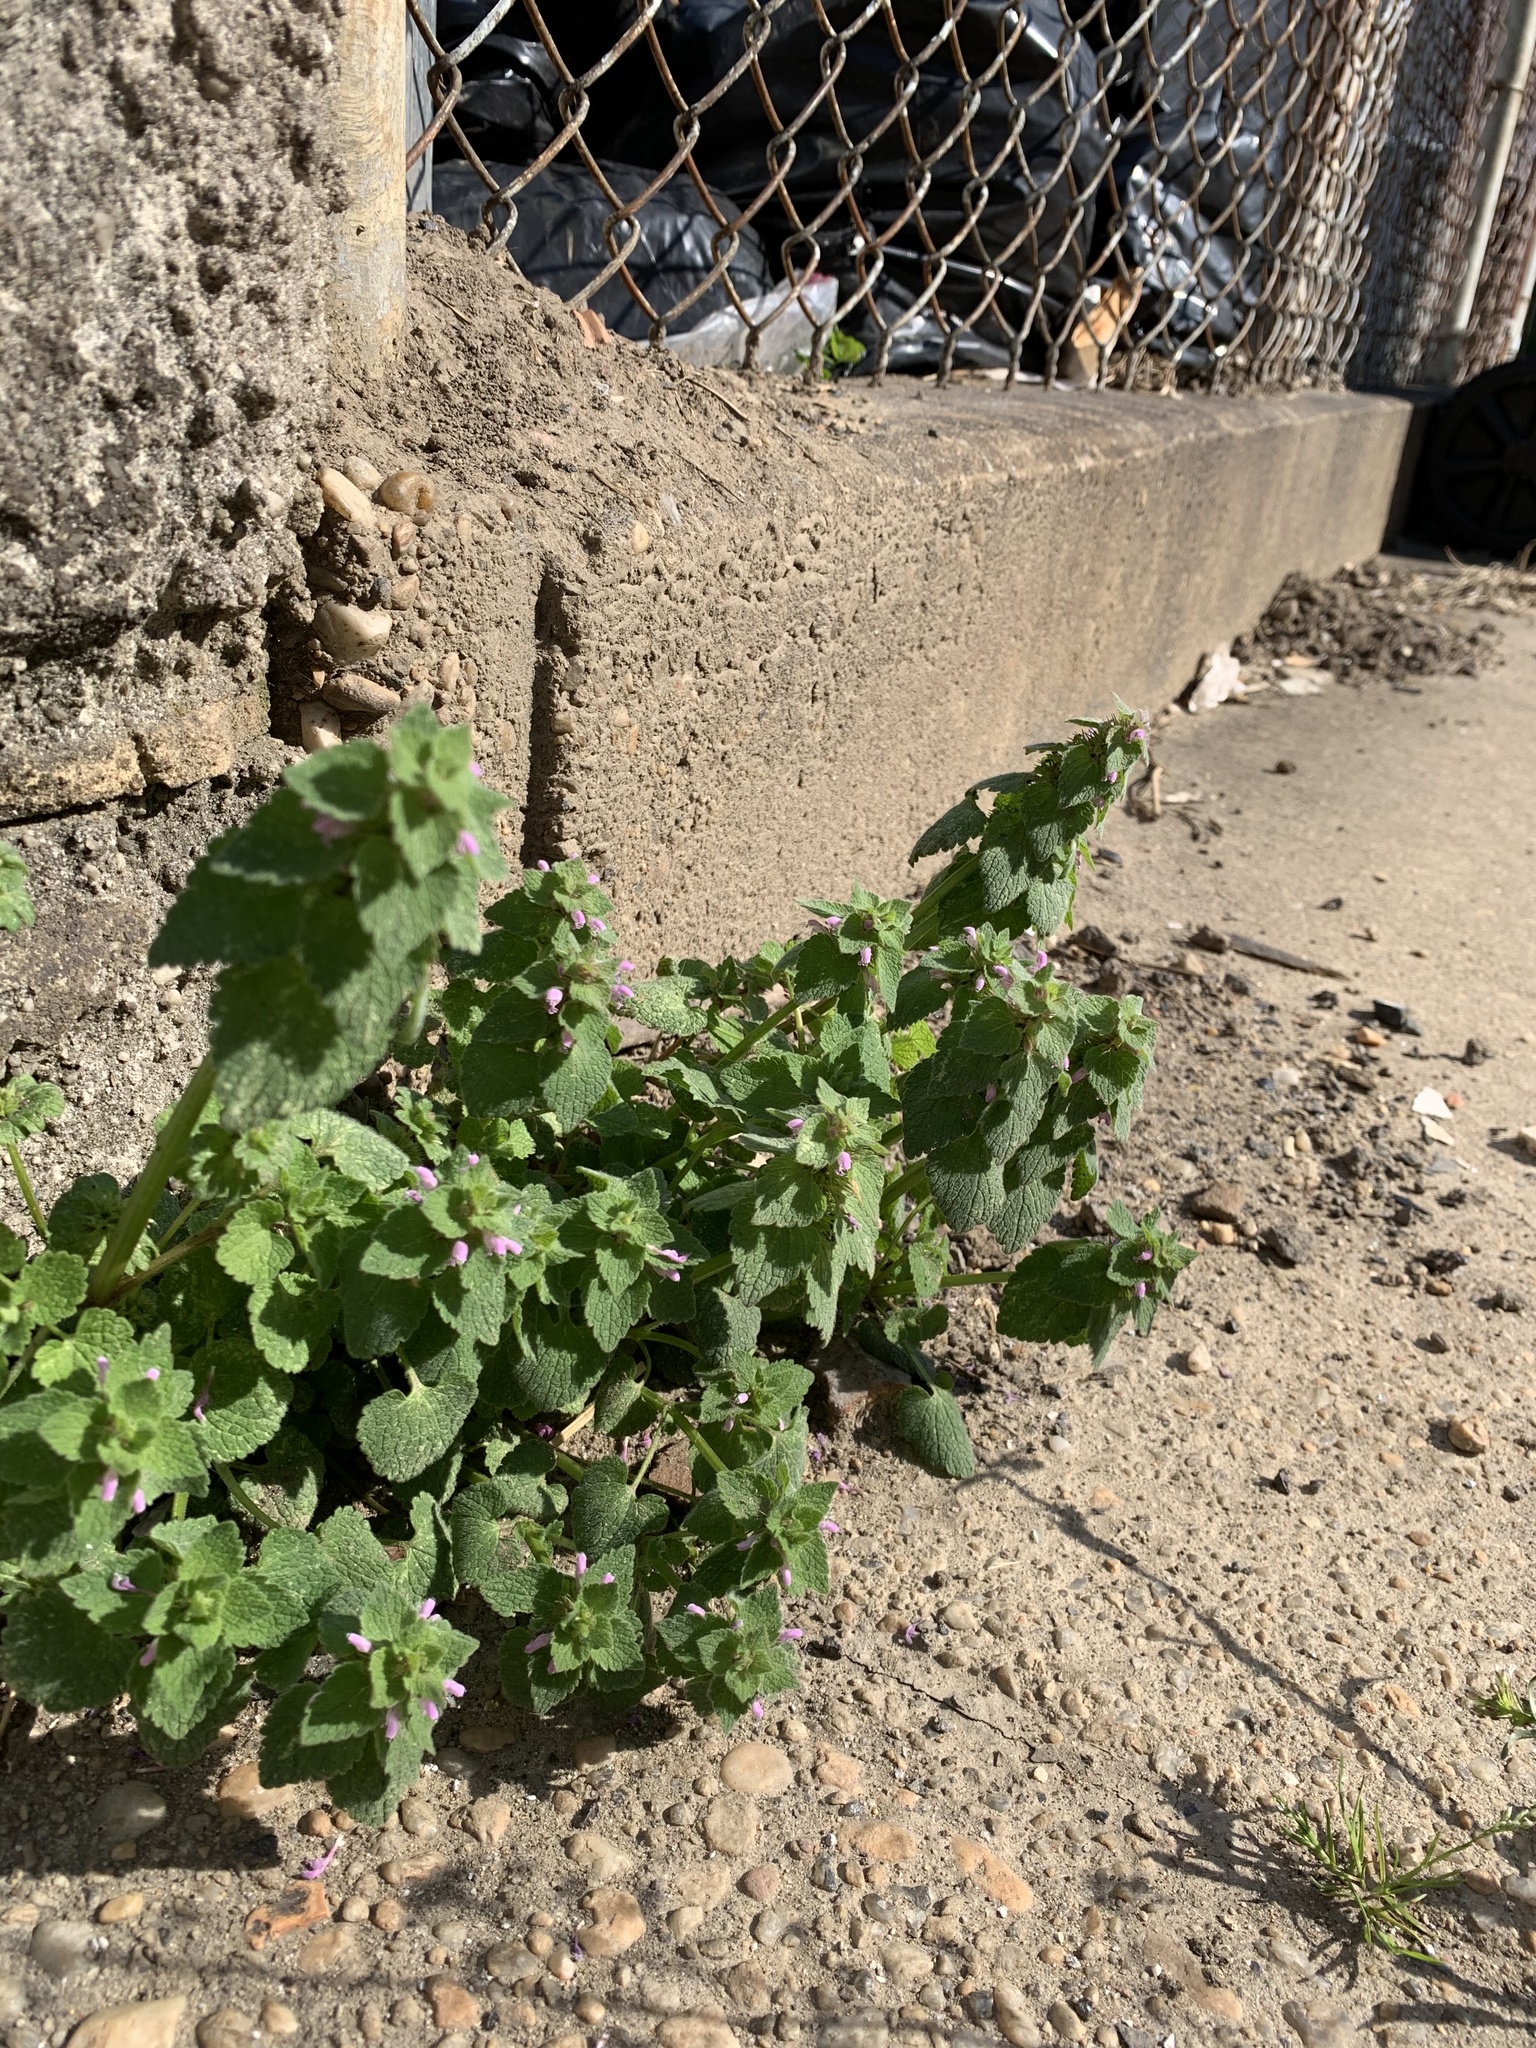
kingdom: Plantae
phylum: Tracheophyta
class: Magnoliopsida
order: Lamiales
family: Lamiaceae
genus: Lamium
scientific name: Lamium purpureum
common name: Red dead-nettle
